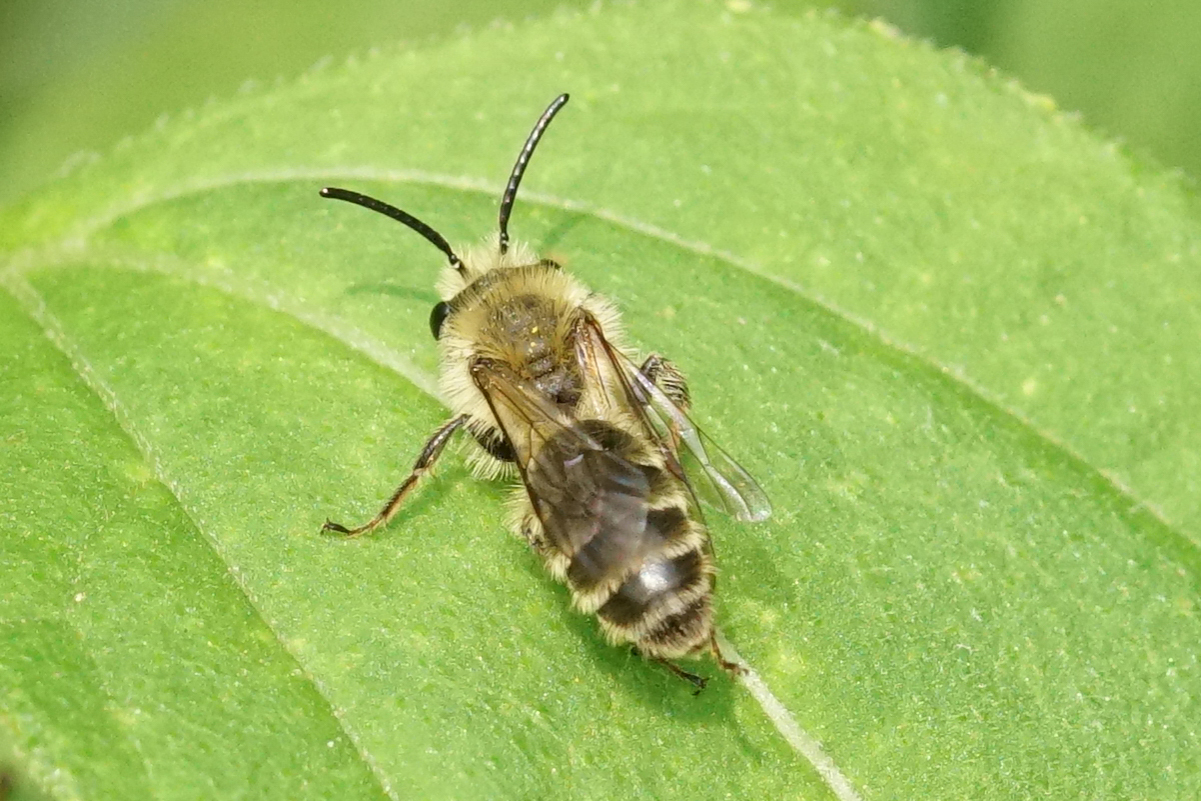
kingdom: Animalia
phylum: Arthropoda
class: Insecta
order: Hymenoptera
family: Andrenidae
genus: Andrena
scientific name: Andrena hirticincta
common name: Hairy-banded mining bee
